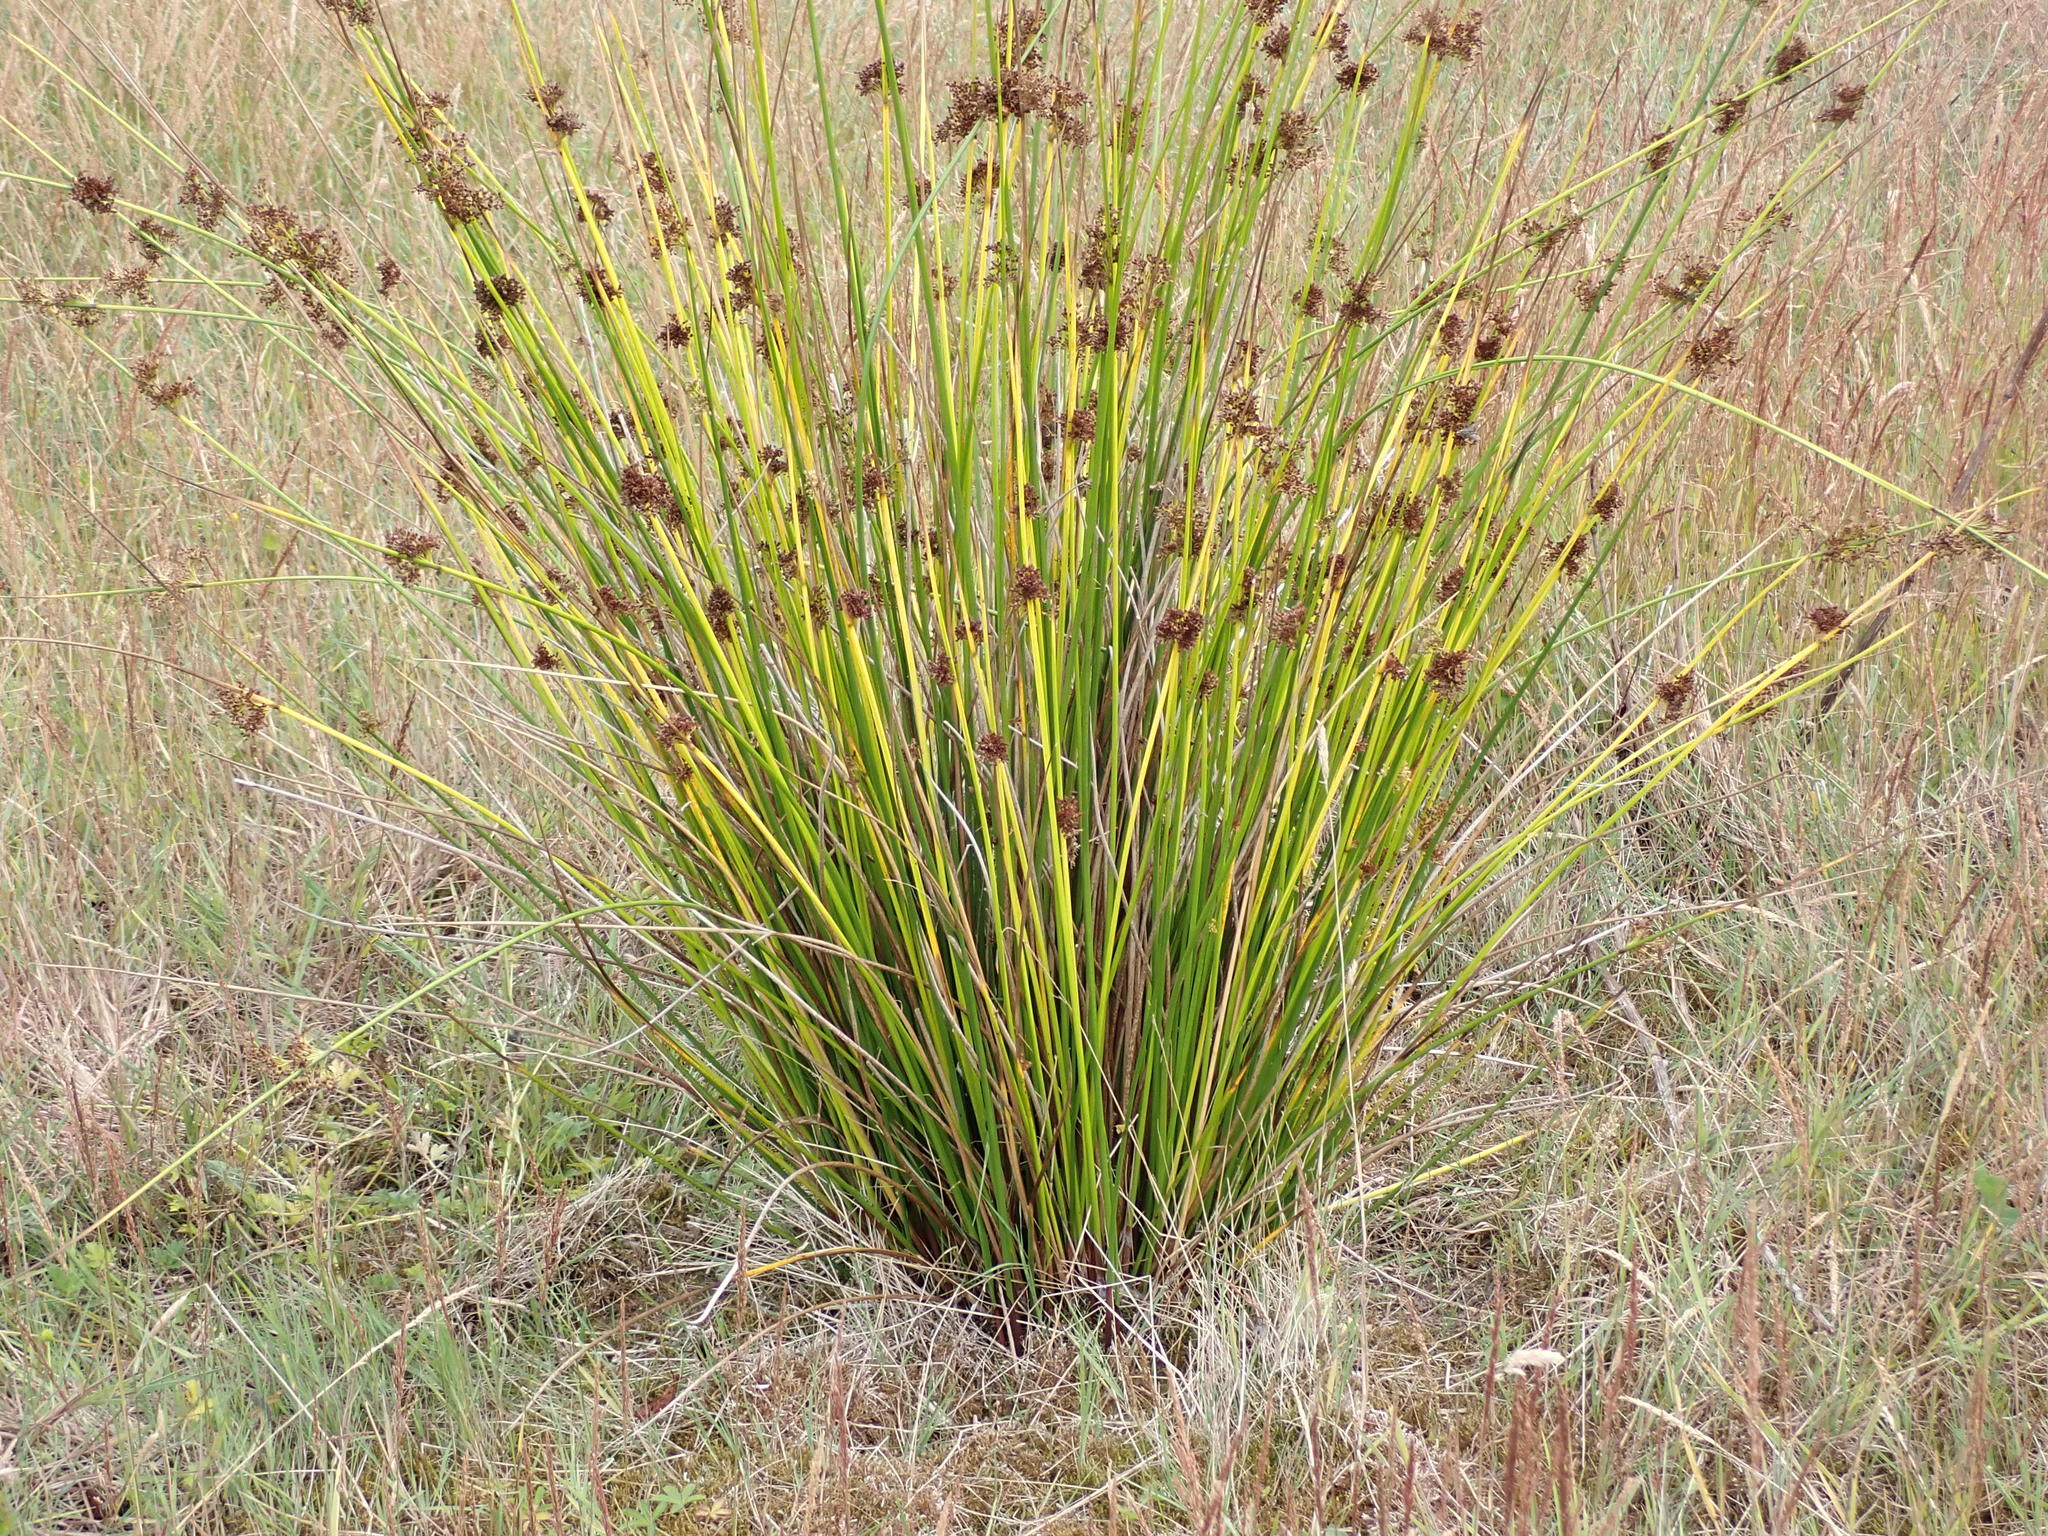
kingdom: Plantae
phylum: Tracheophyta
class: Liliopsida
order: Poales
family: Juncaceae
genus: Juncus
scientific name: Juncus effusus
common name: Soft rush
